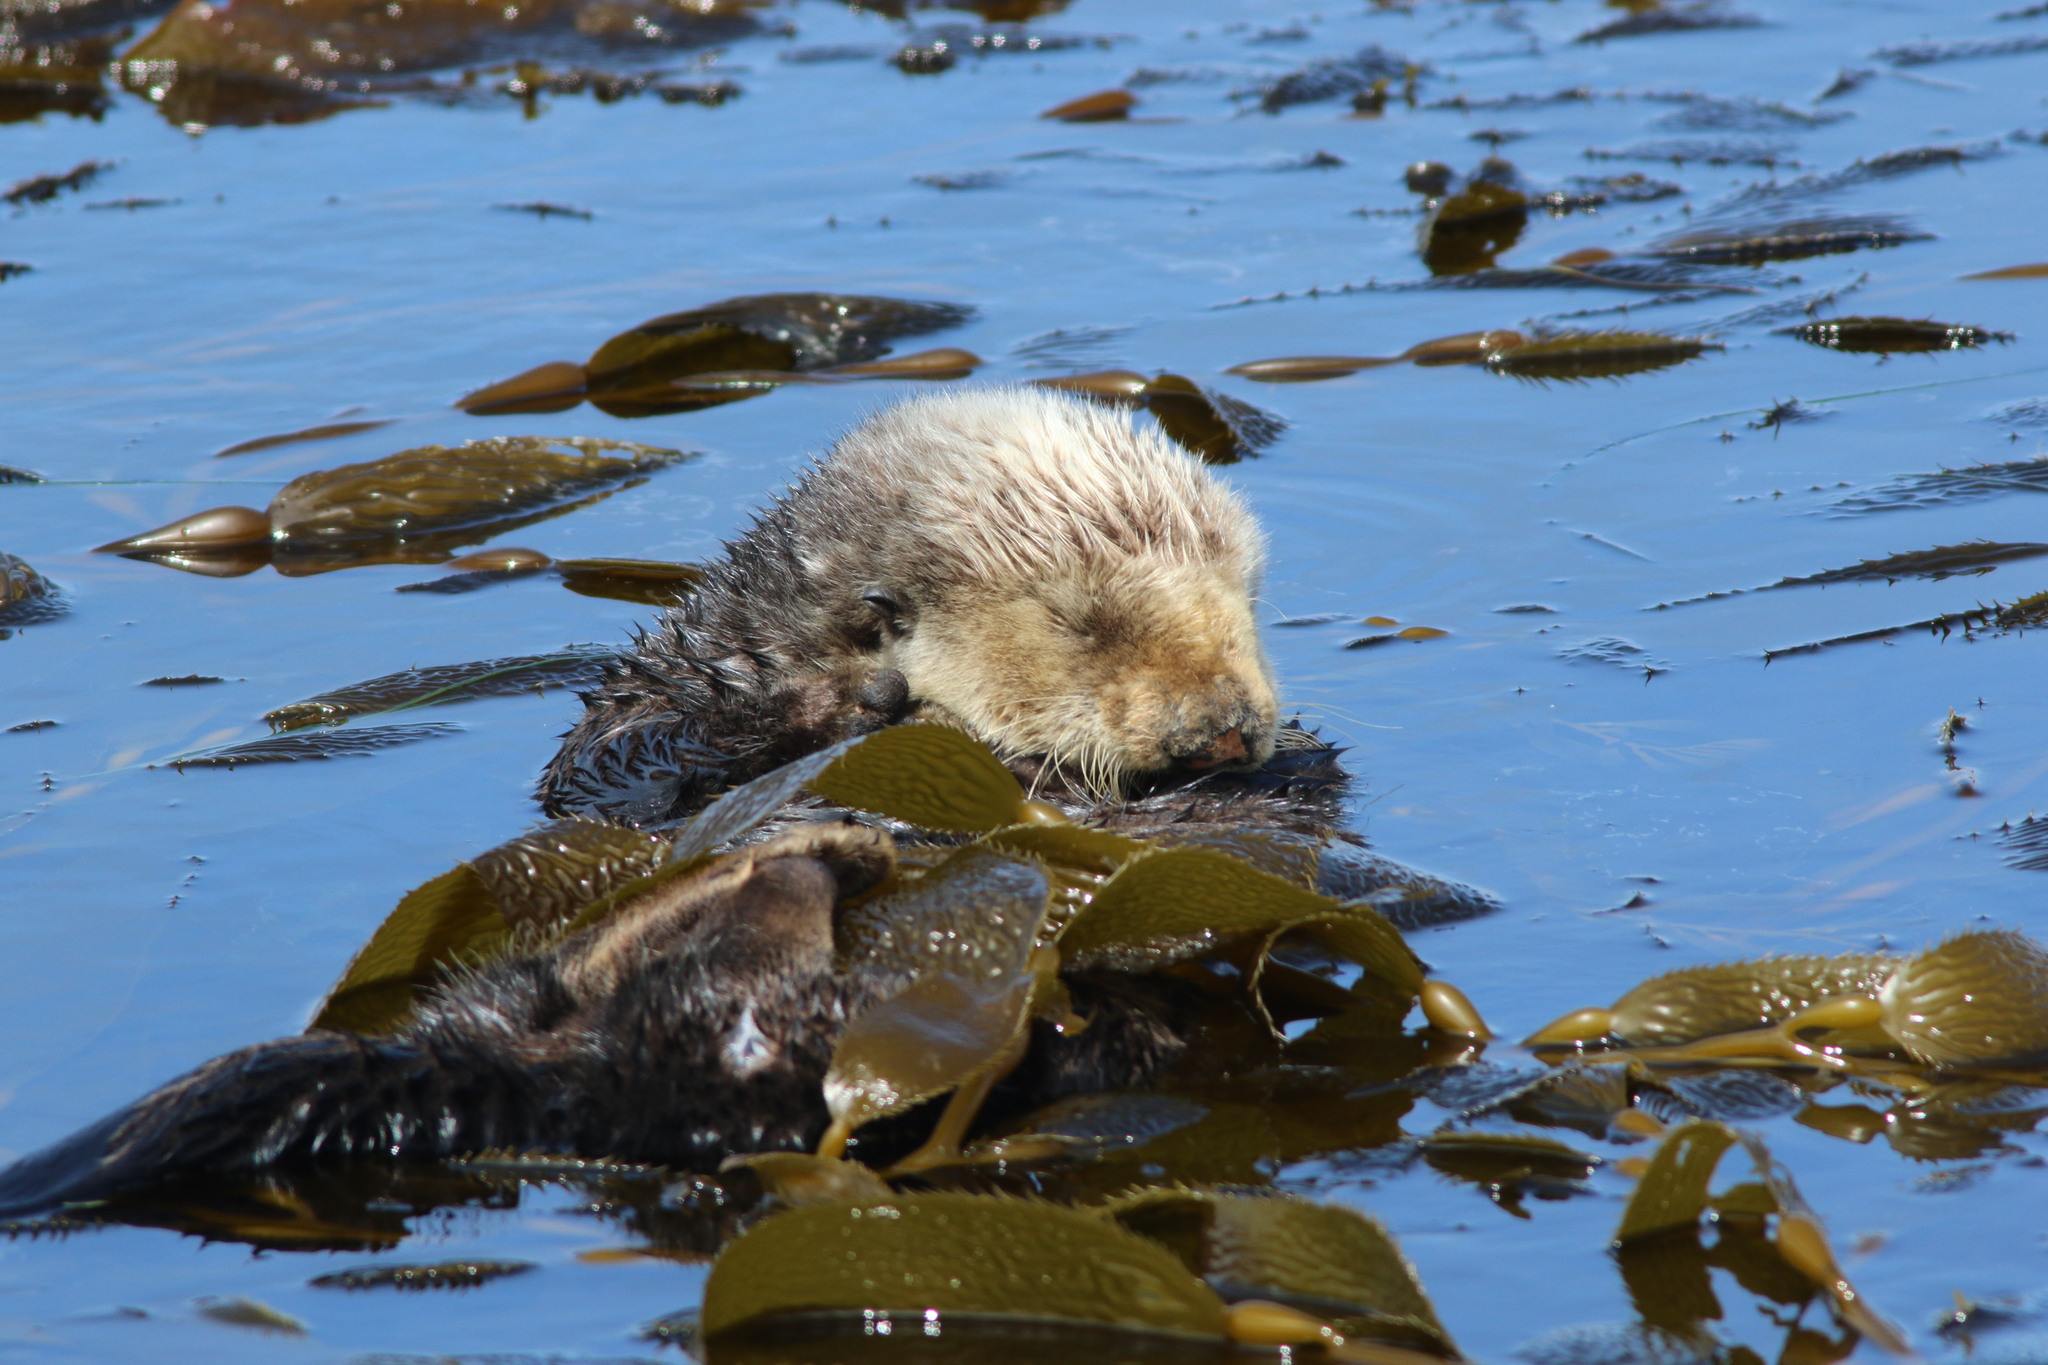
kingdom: Animalia
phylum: Chordata
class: Mammalia
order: Carnivora
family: Mustelidae
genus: Enhydra
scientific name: Enhydra lutris
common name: Sea otter
